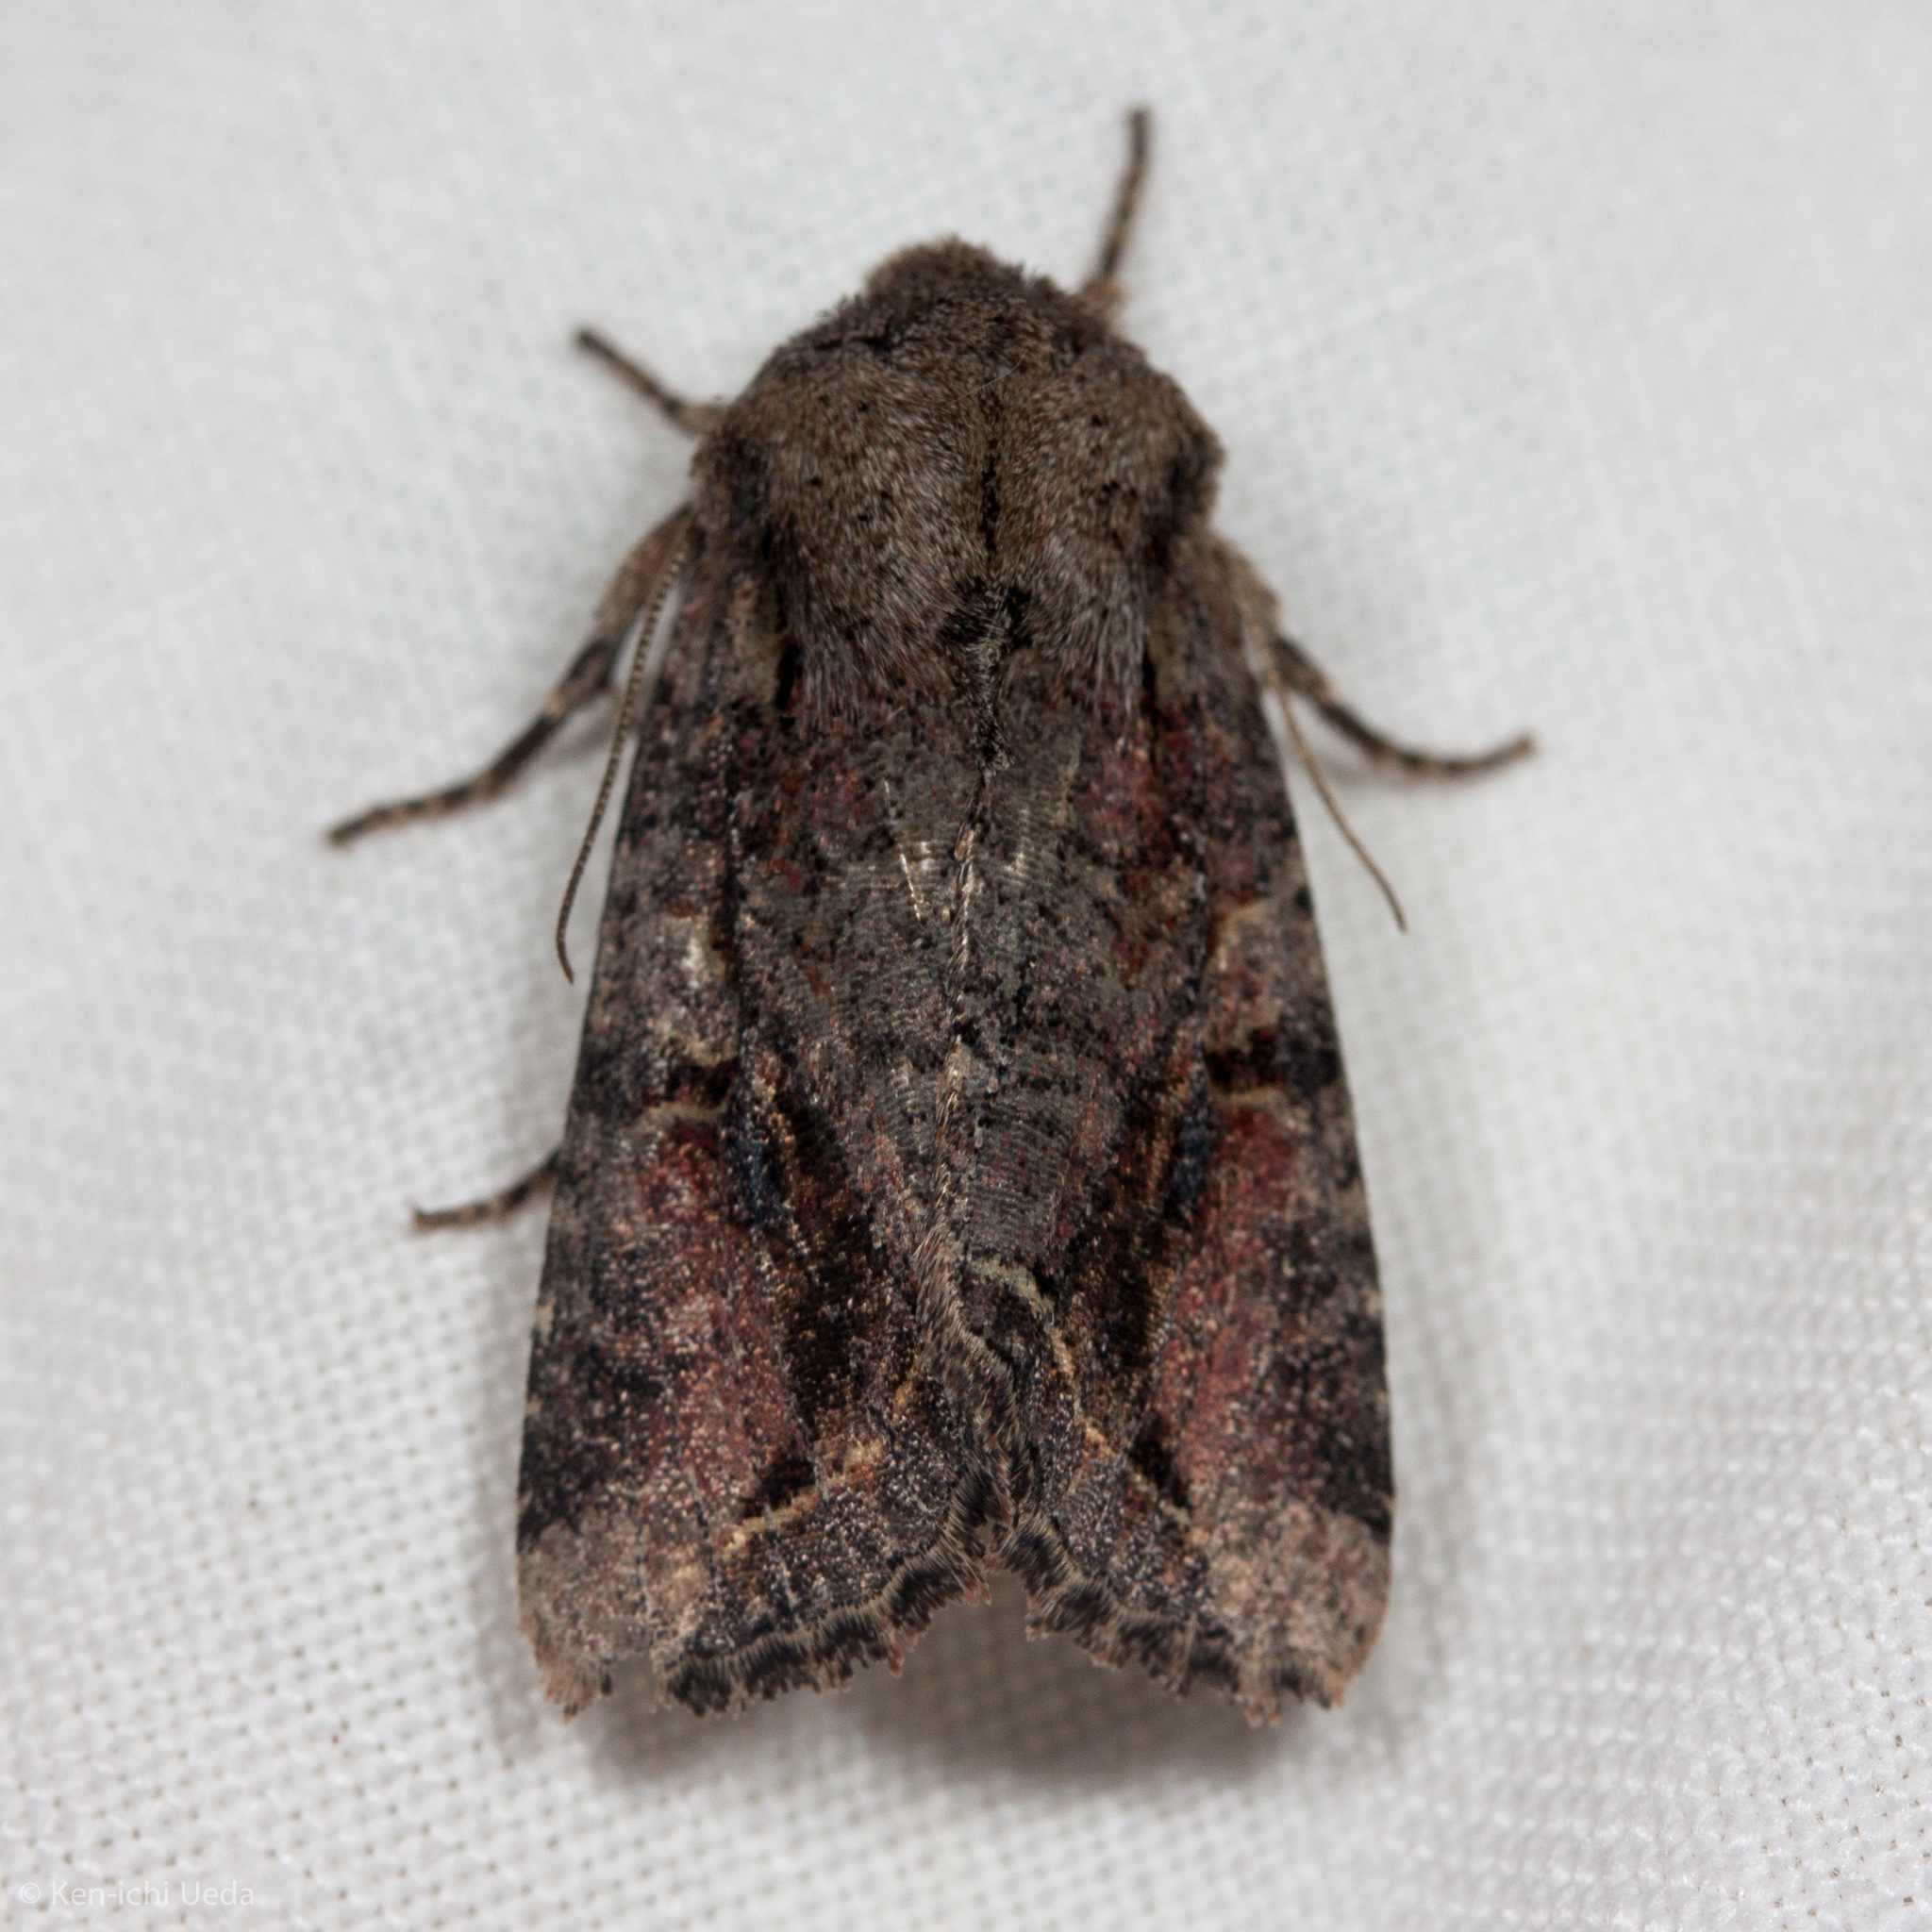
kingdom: Animalia
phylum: Arthropoda
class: Insecta
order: Lepidoptera
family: Noctuidae
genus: Egira
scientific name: Egira rubrica
